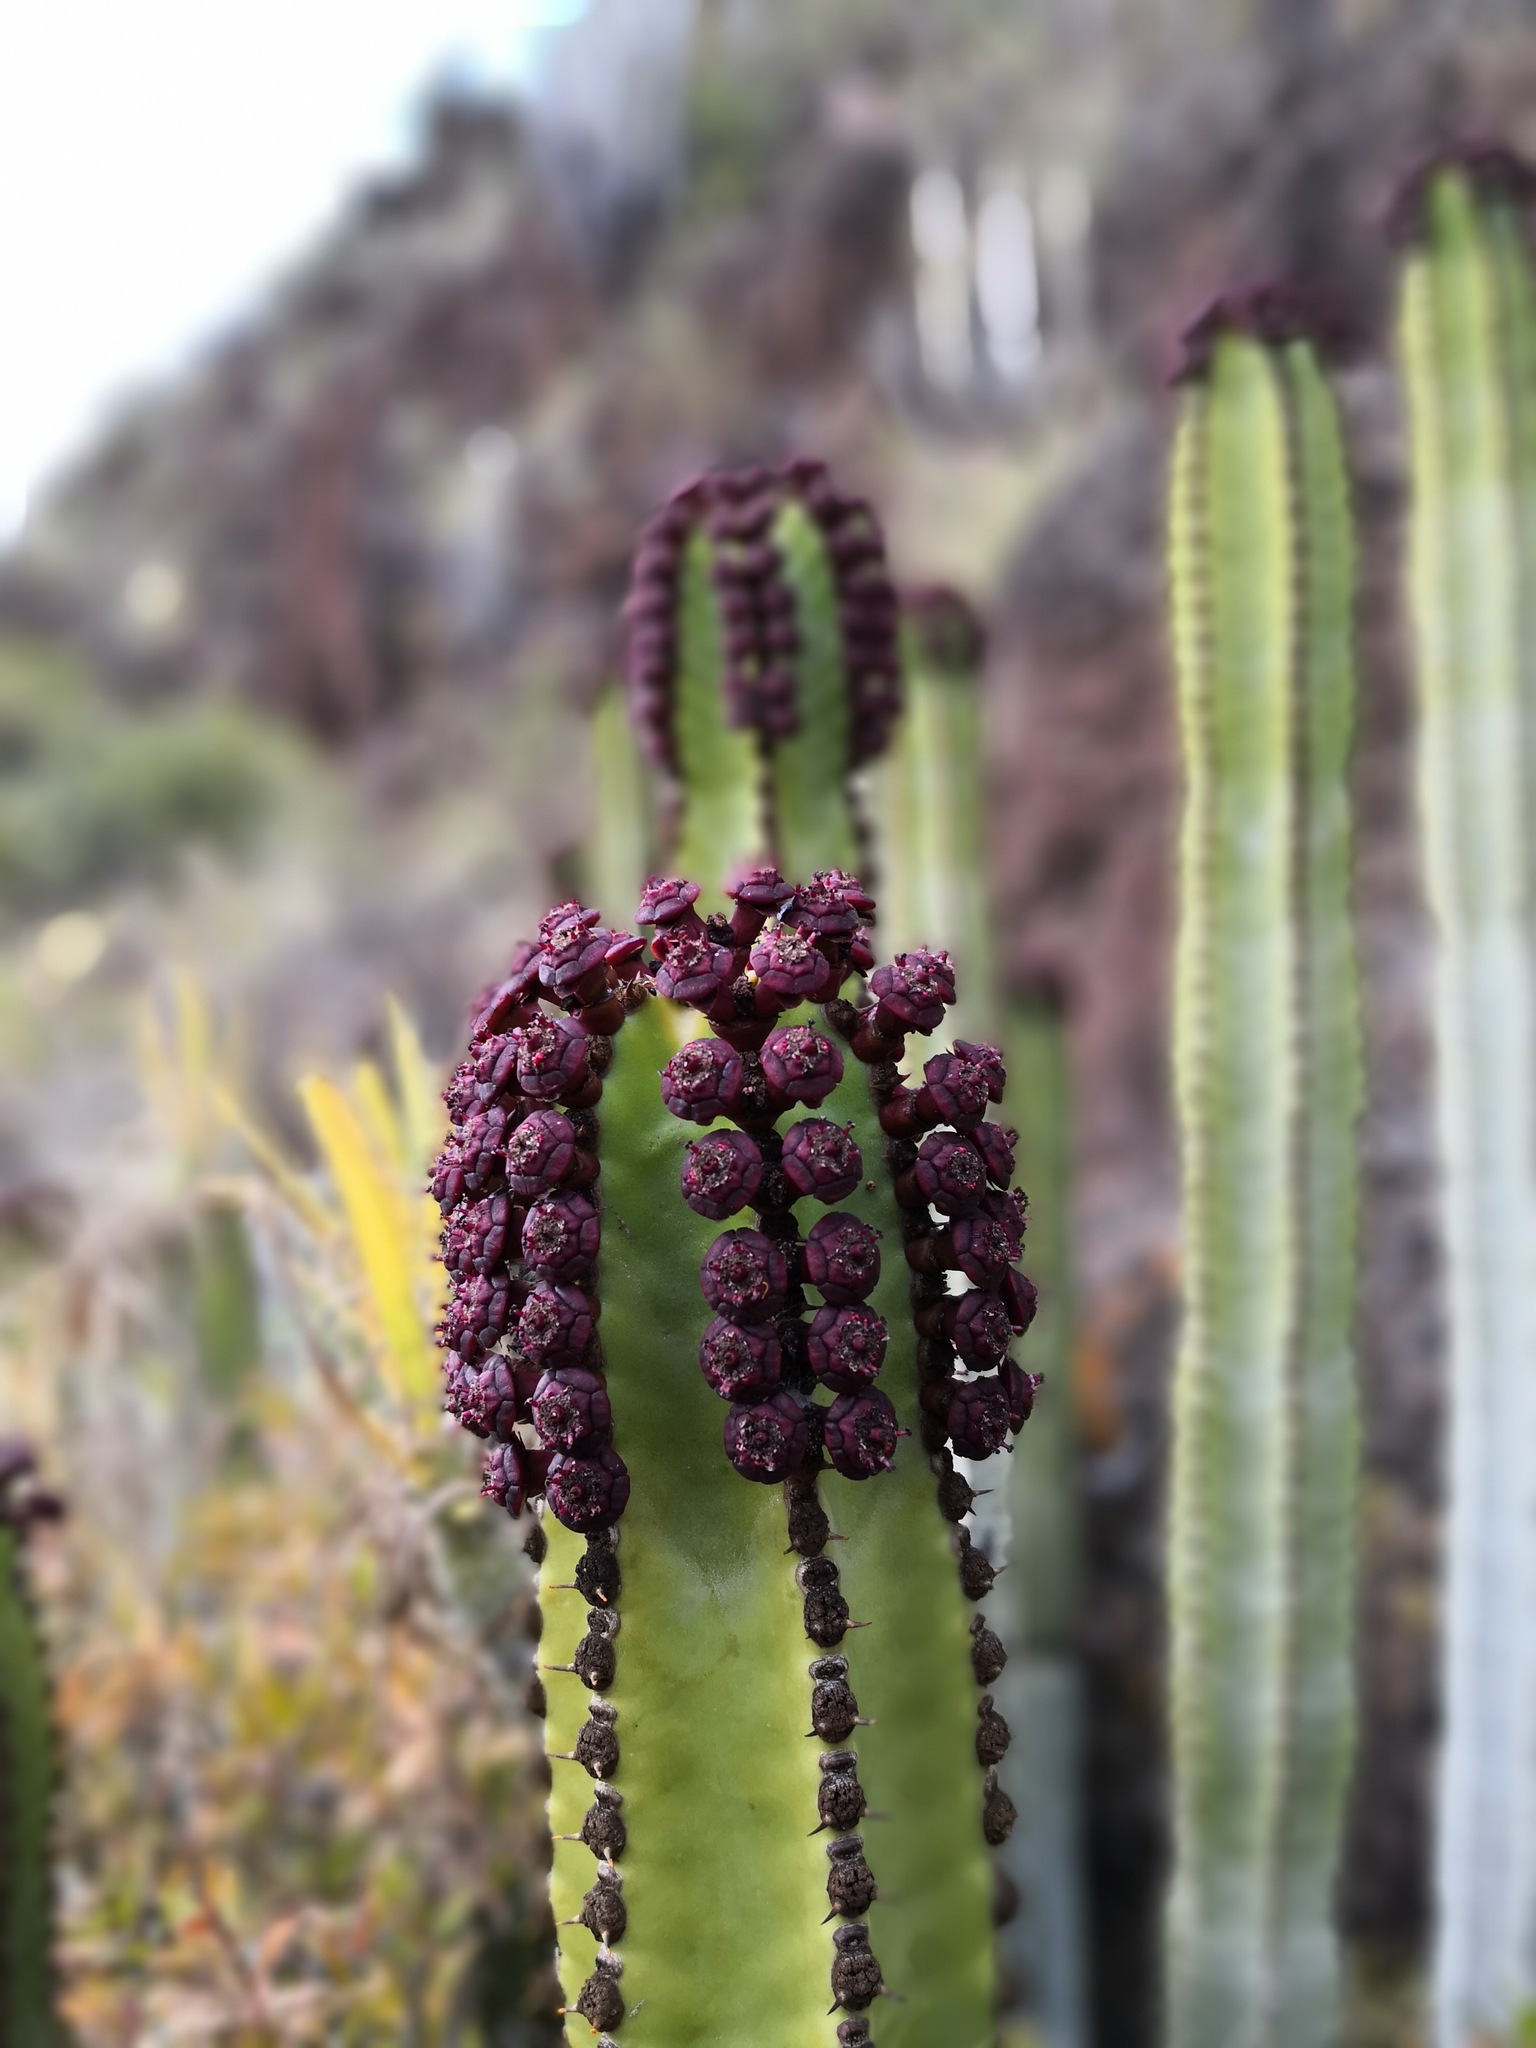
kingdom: Plantae
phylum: Tracheophyta
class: Magnoliopsida
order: Malpighiales
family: Euphorbiaceae
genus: Euphorbia
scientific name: Euphorbia canariensis
